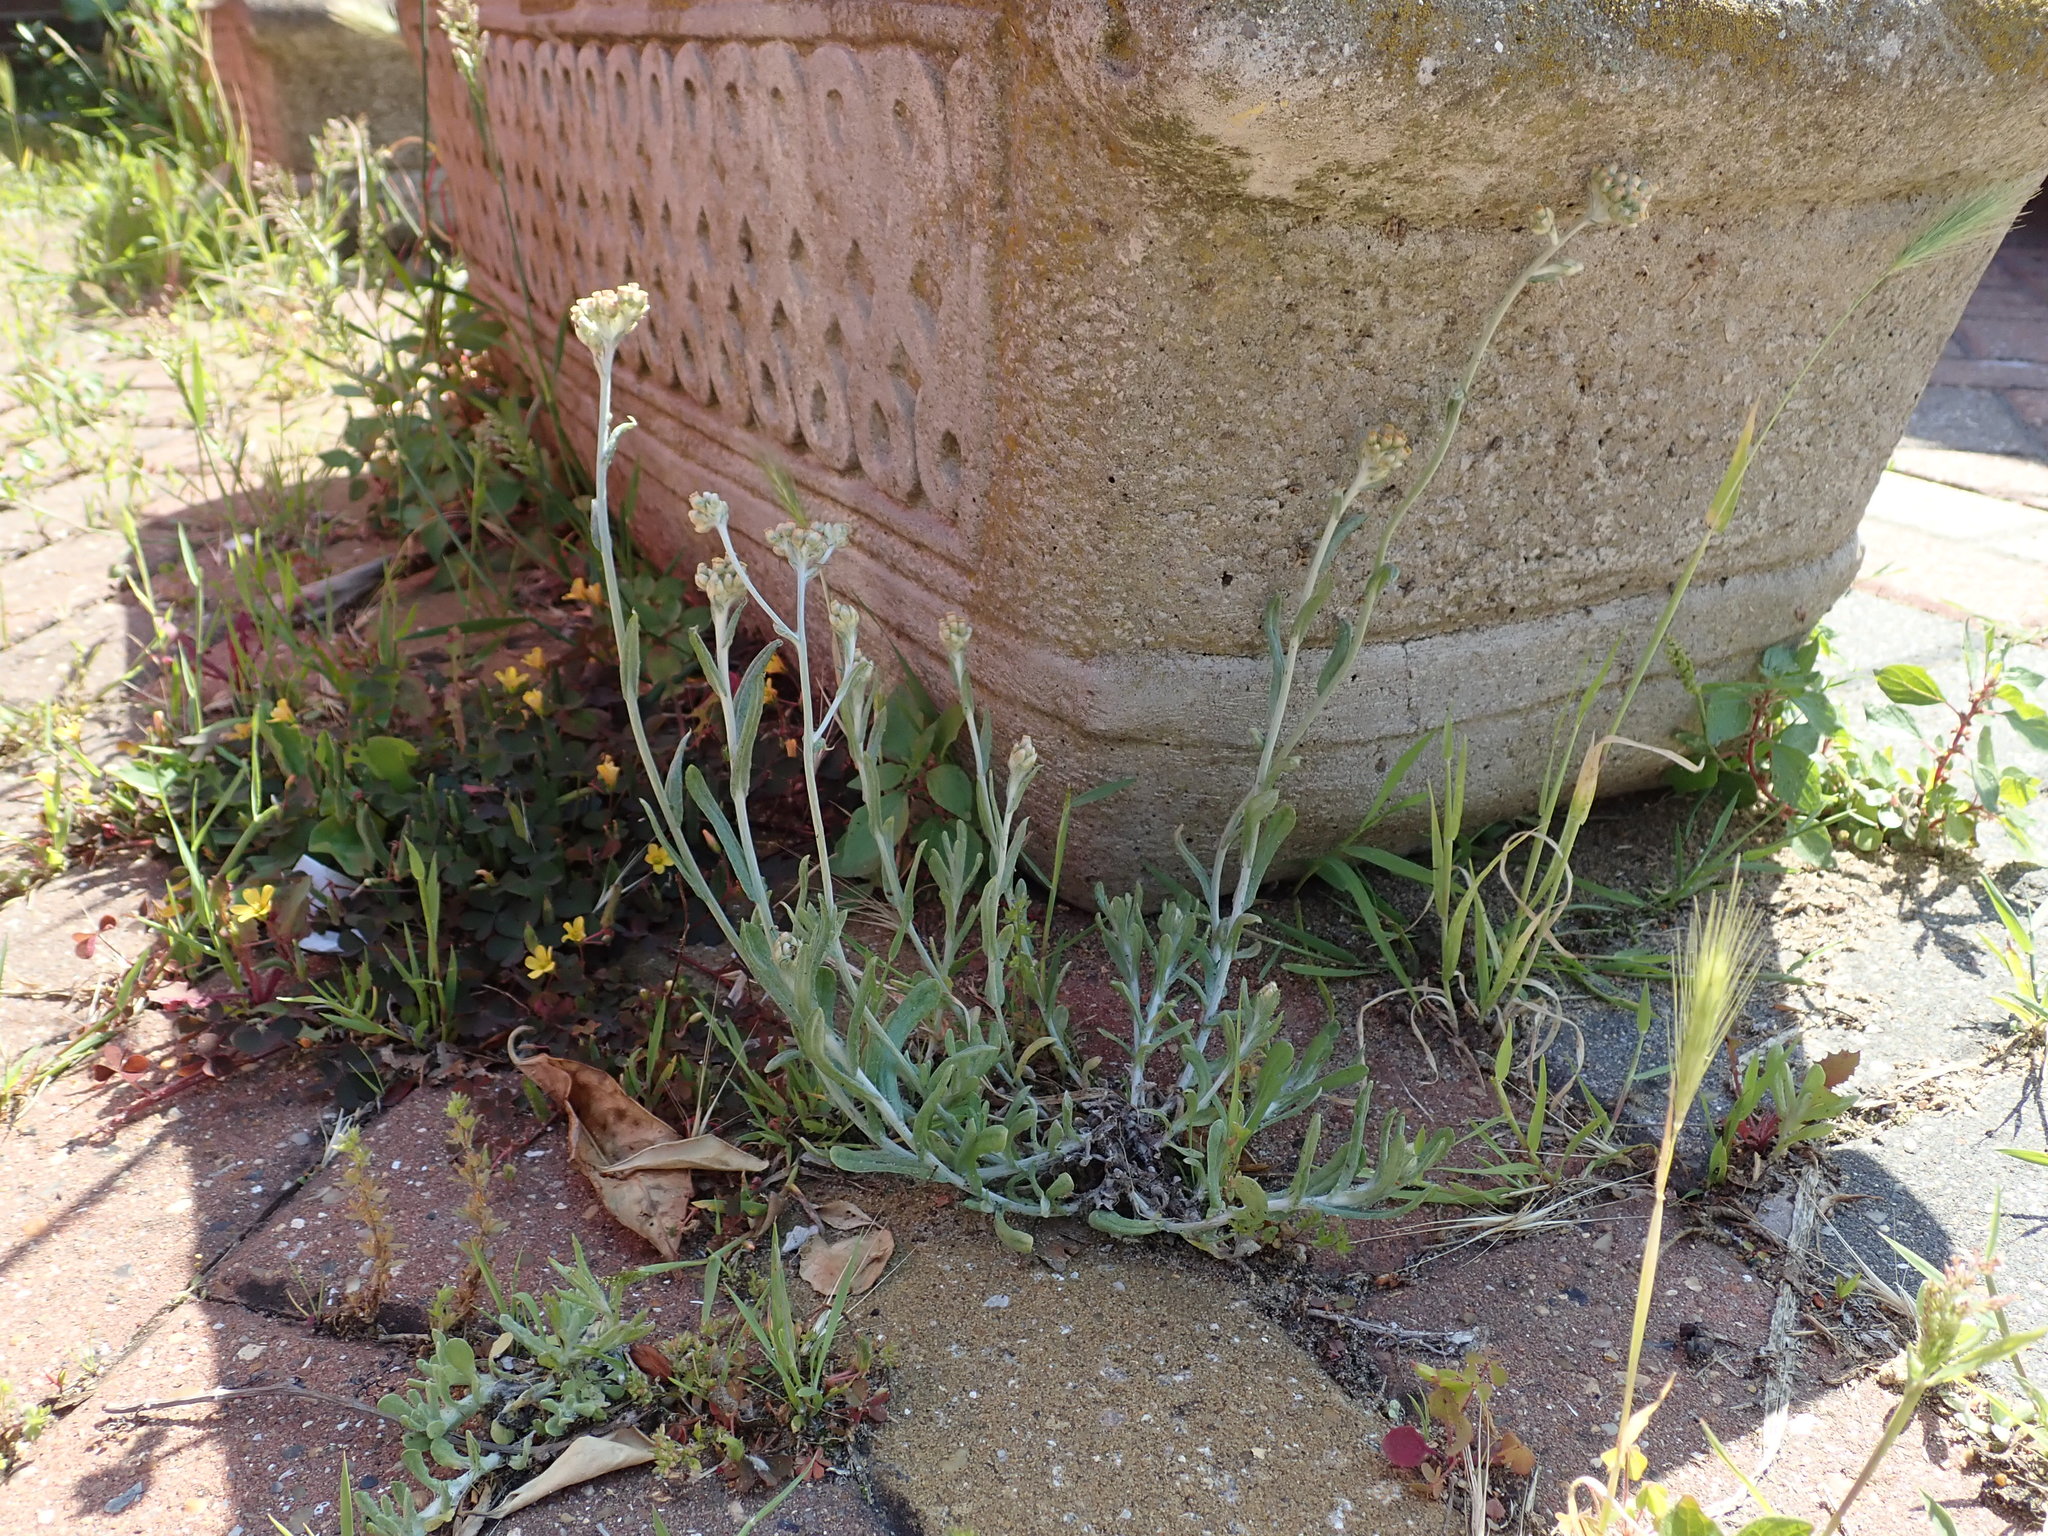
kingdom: Plantae
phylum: Tracheophyta
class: Magnoliopsida
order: Asterales
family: Asteraceae
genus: Helichrysum
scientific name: Helichrysum luteoalbum
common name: Daisy
